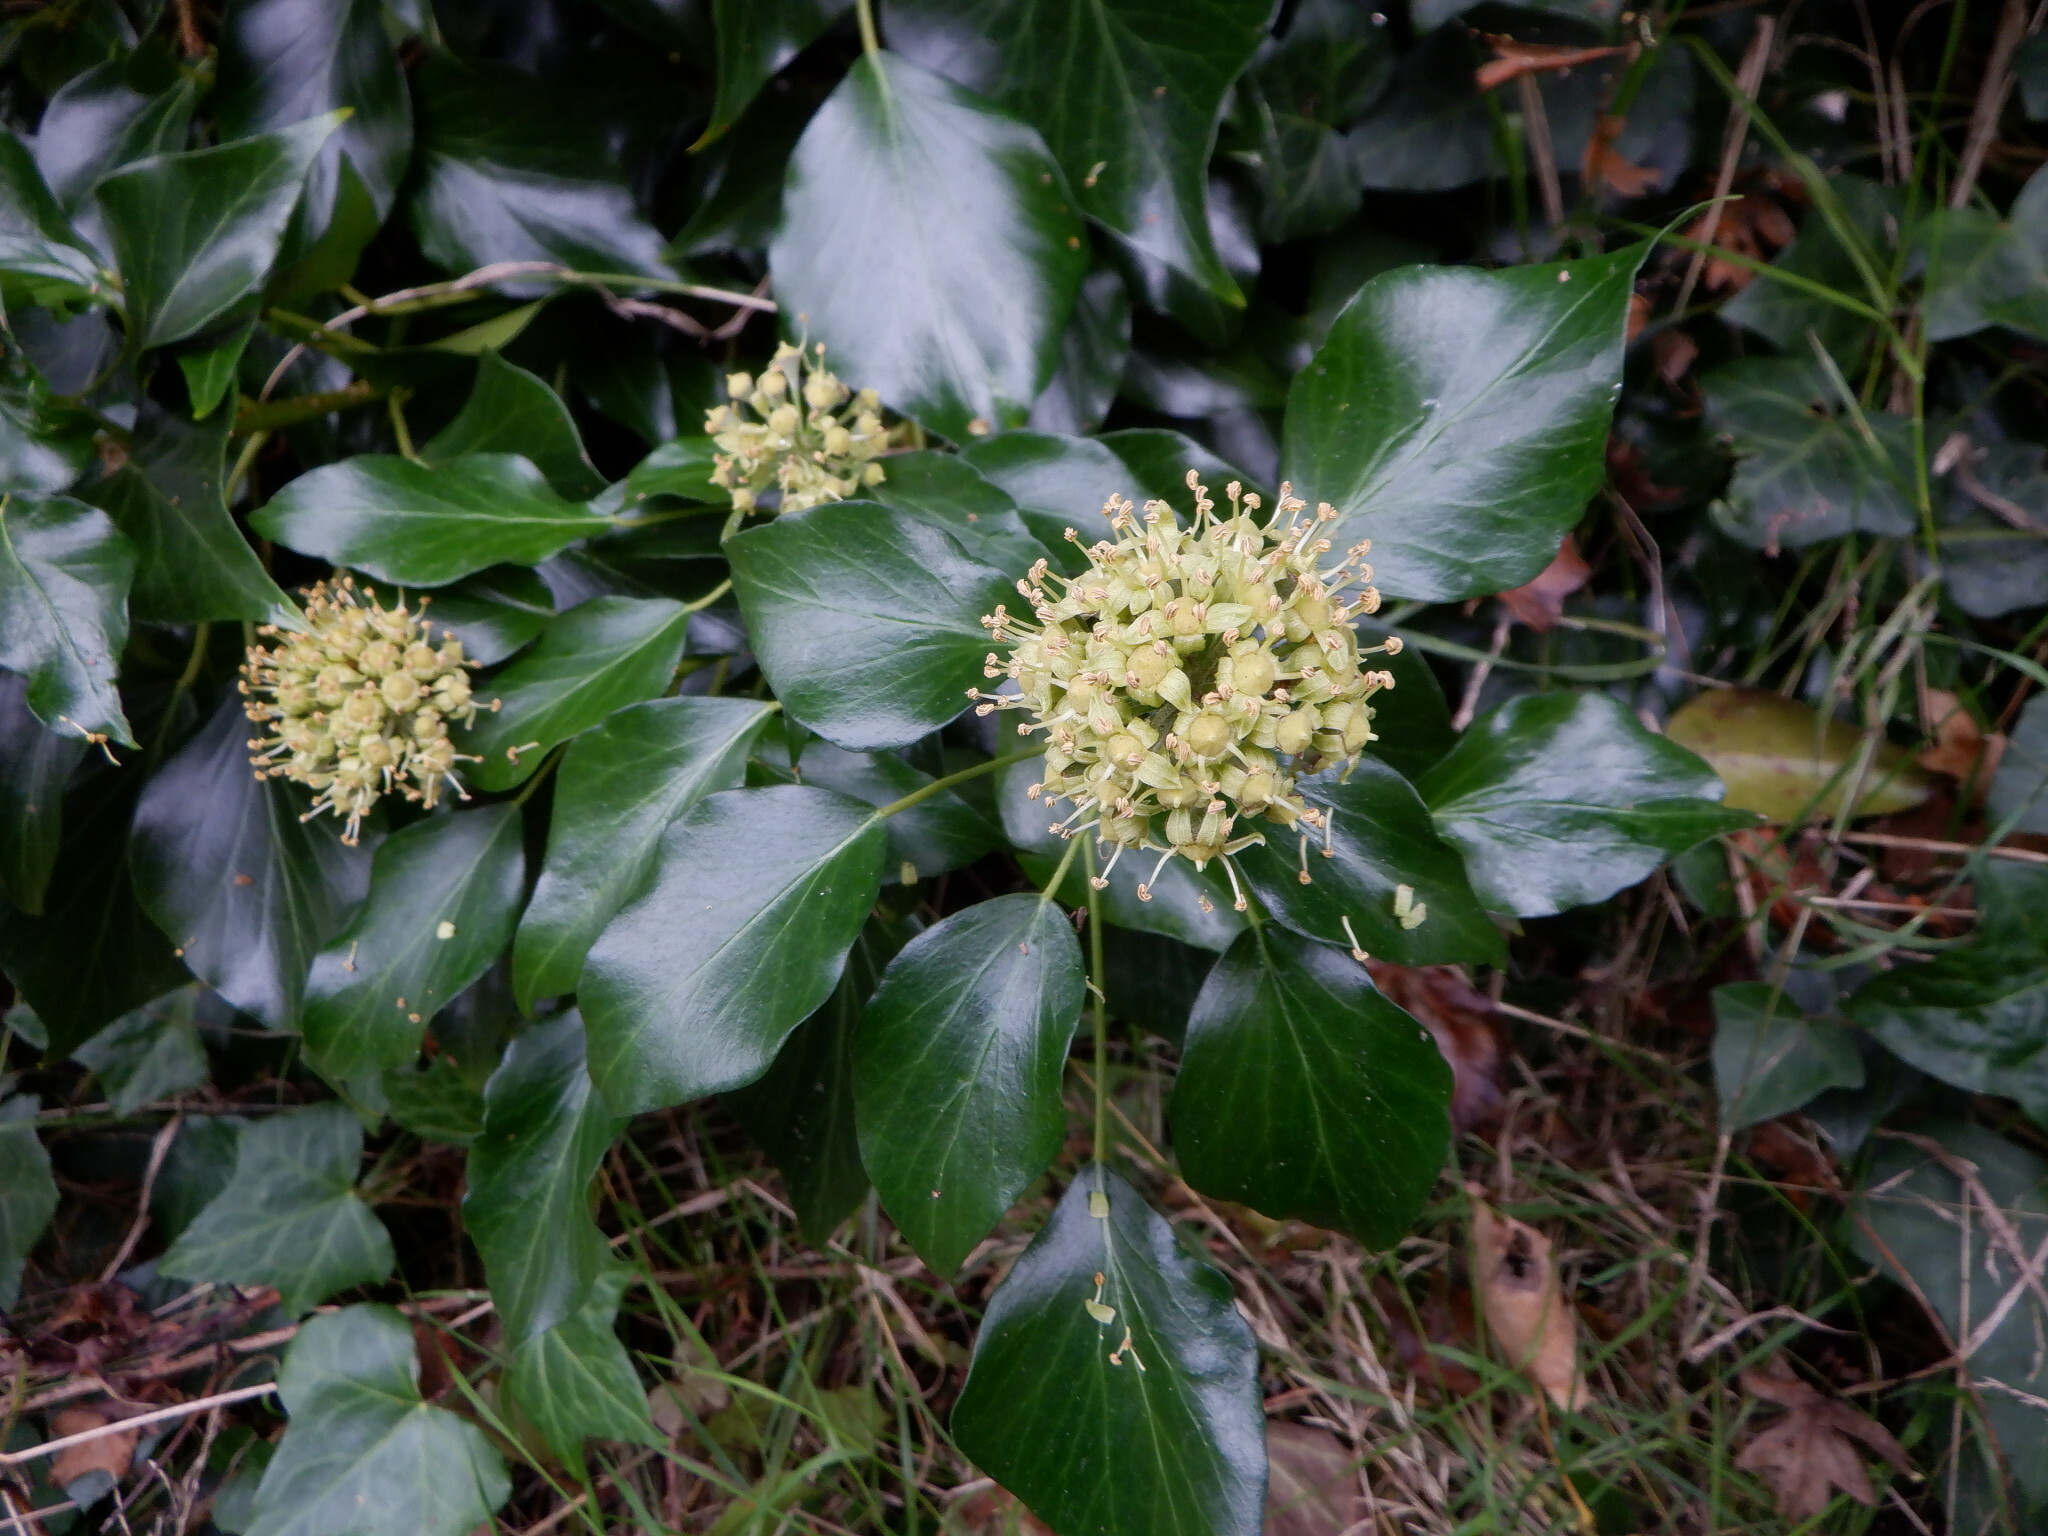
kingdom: Plantae
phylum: Tracheophyta
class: Magnoliopsida
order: Apiales
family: Araliaceae
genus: Hedera
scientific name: Hedera helix
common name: Ivy
